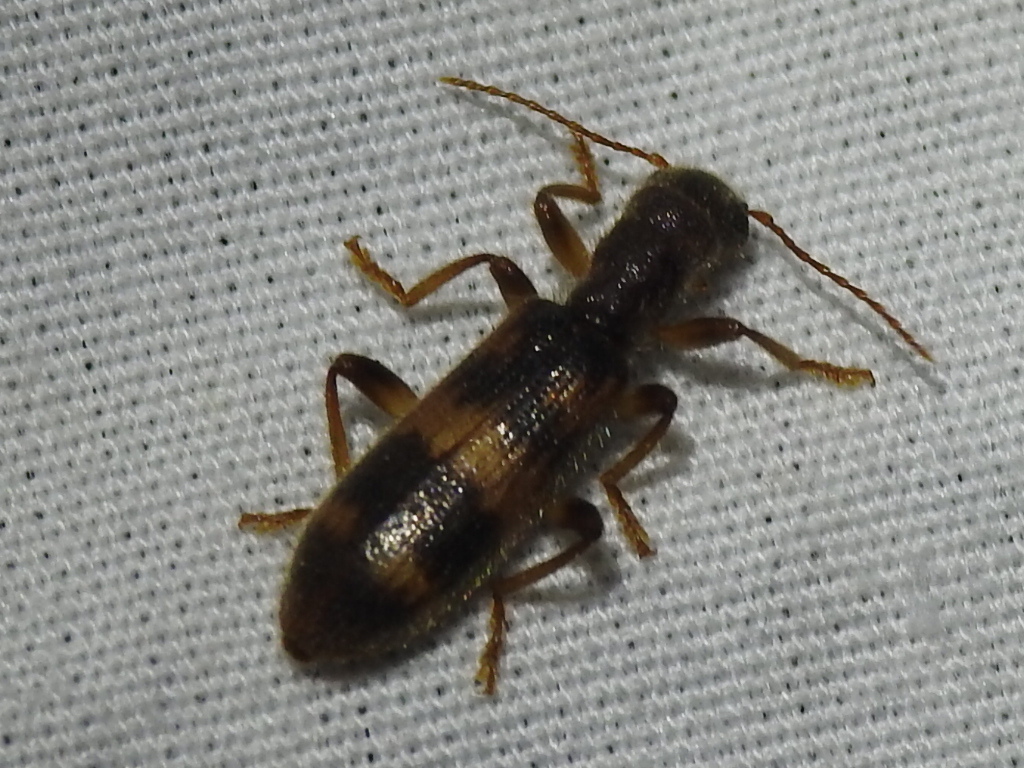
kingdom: Animalia
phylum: Arthropoda
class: Insecta
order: Coleoptera
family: Cleridae
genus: Cymatodera
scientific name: Cymatodera undulata
